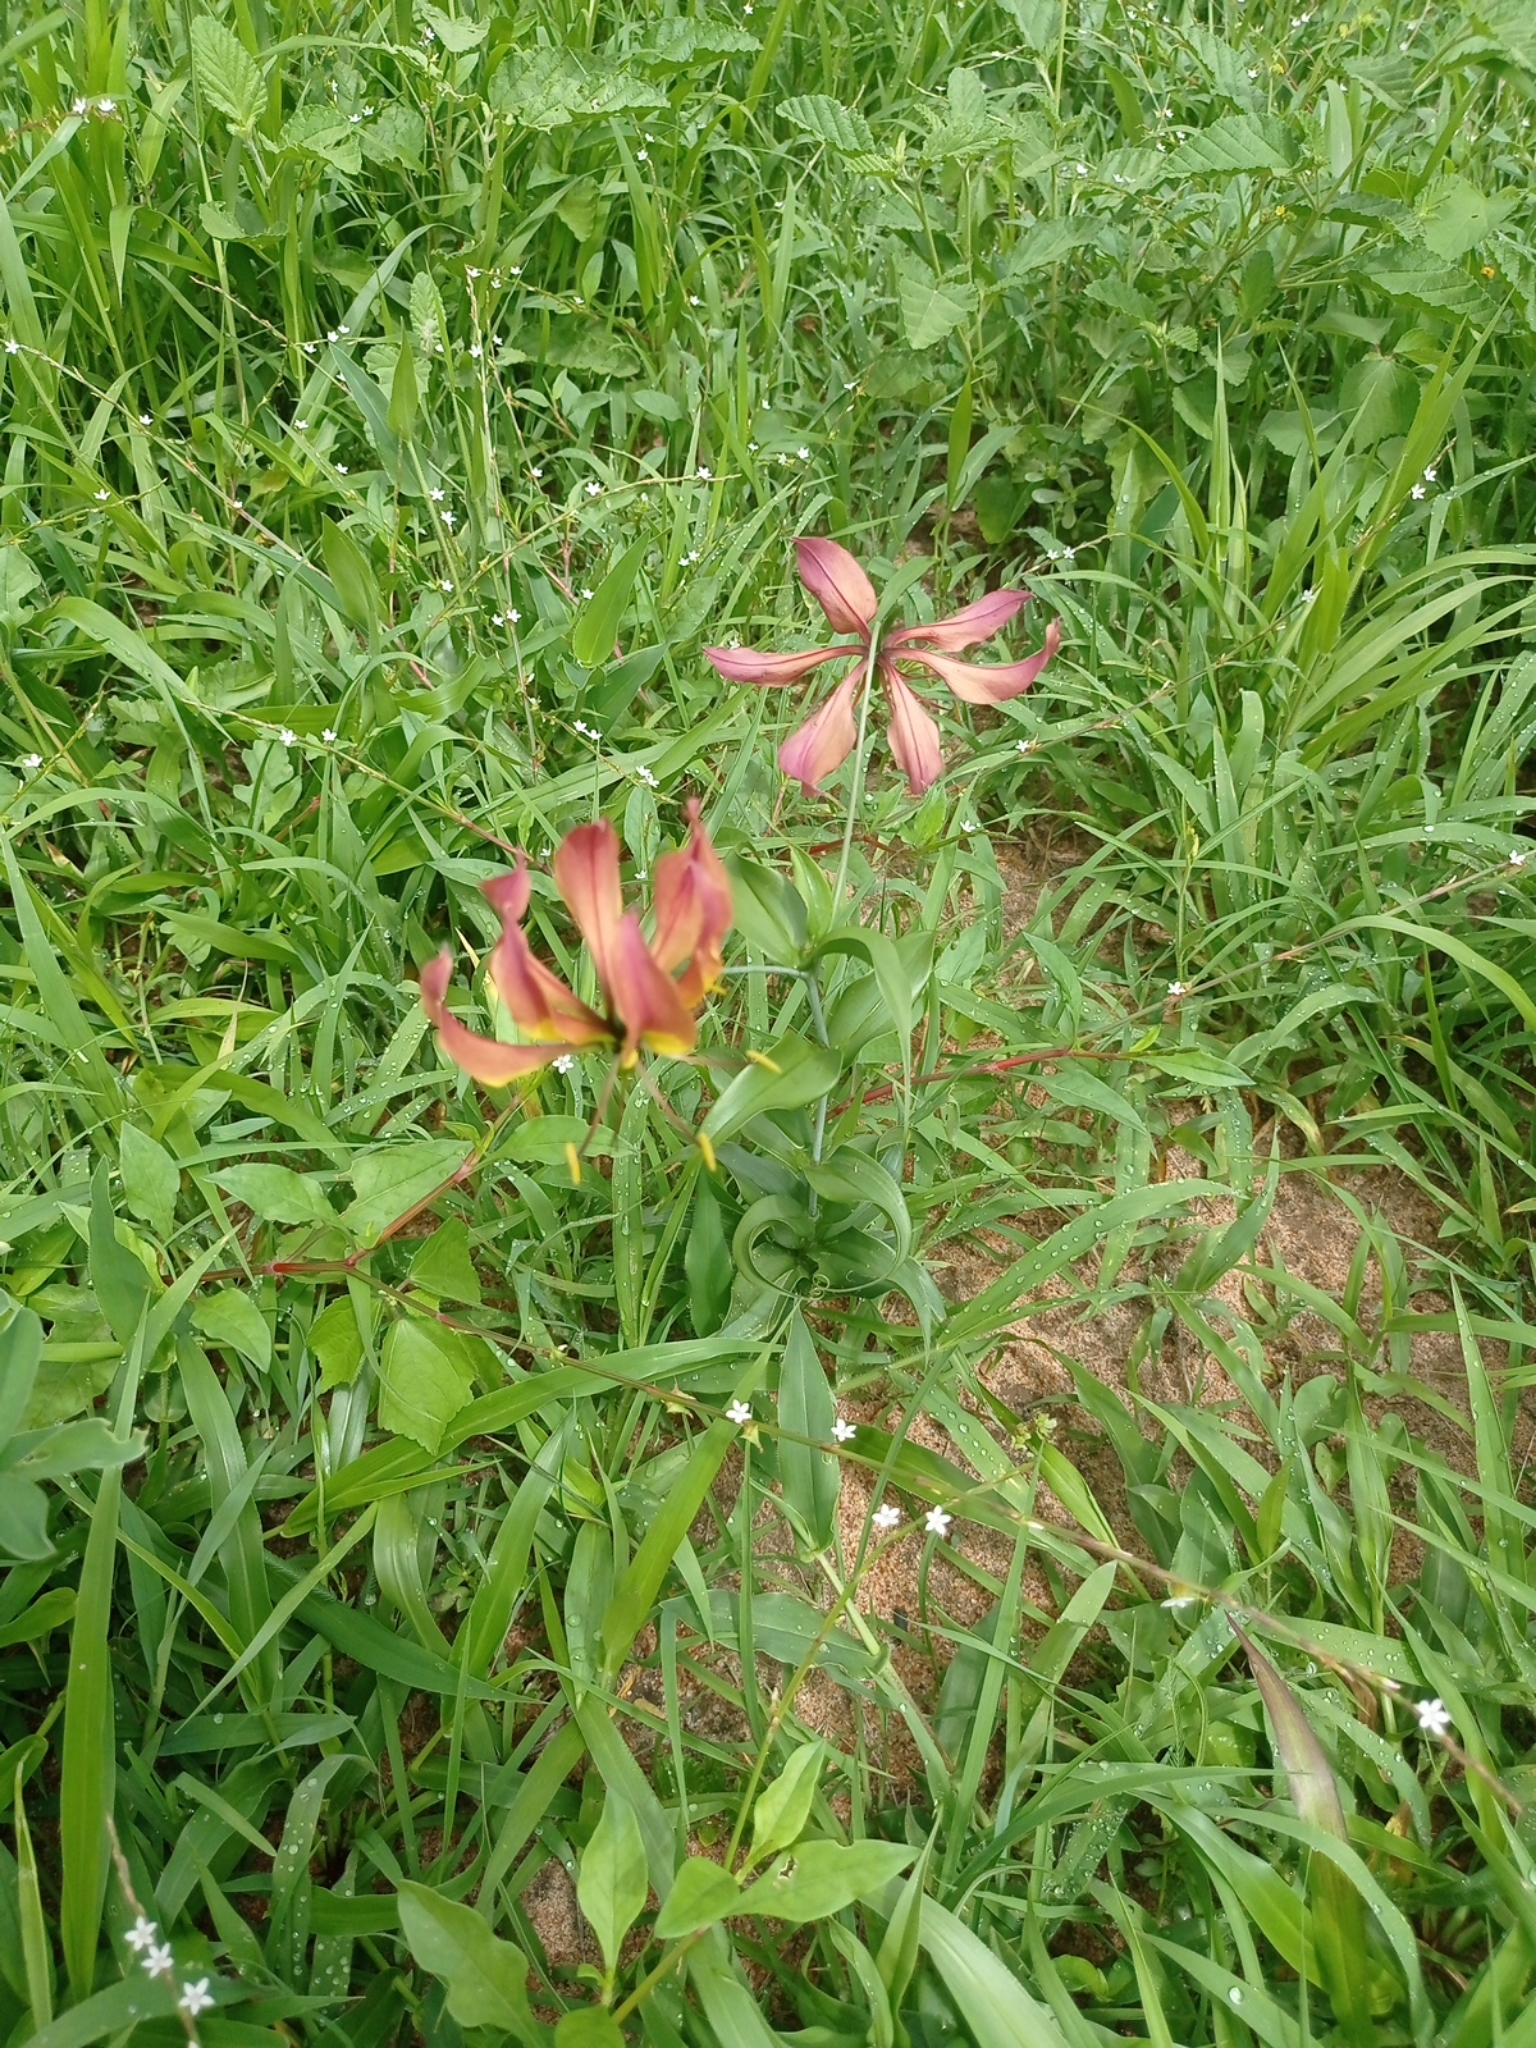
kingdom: Plantae
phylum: Tracheophyta
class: Liliopsida
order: Liliales
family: Colchicaceae
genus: Gloriosa
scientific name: Gloriosa superba
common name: Flame lily
